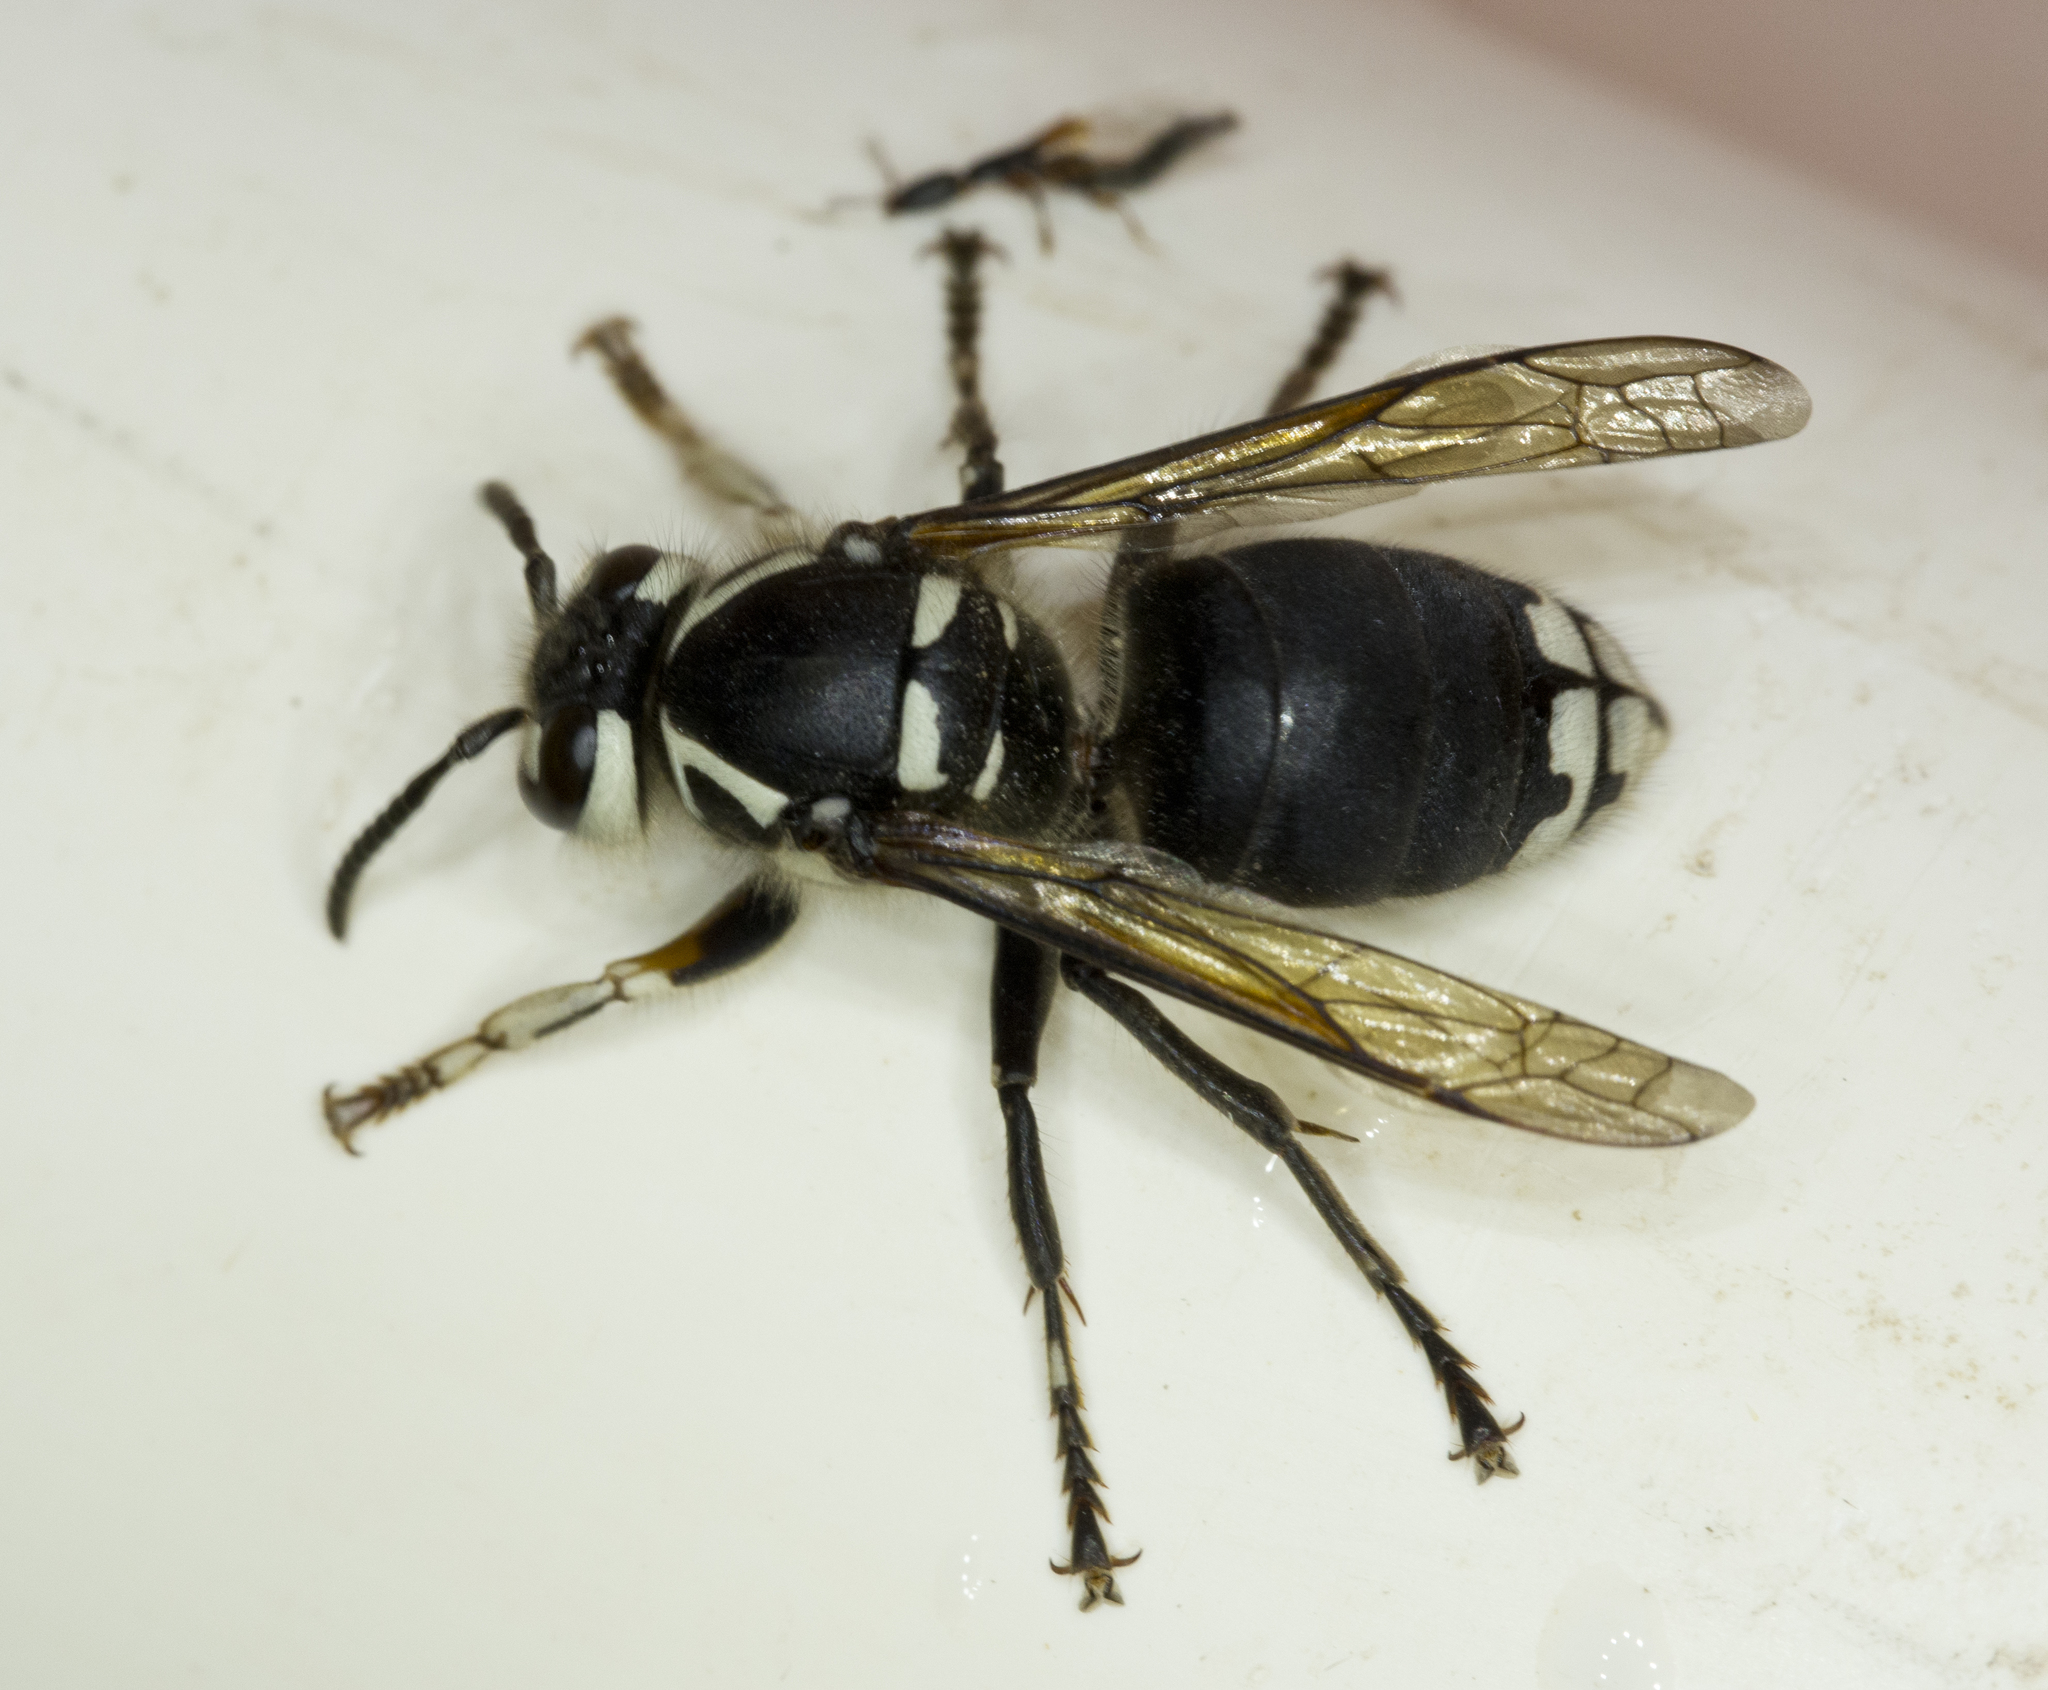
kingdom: Animalia
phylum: Arthropoda
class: Insecta
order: Hymenoptera
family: Vespidae
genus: Dolichovespula
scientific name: Dolichovespula maculata
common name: Bald-faced hornet
